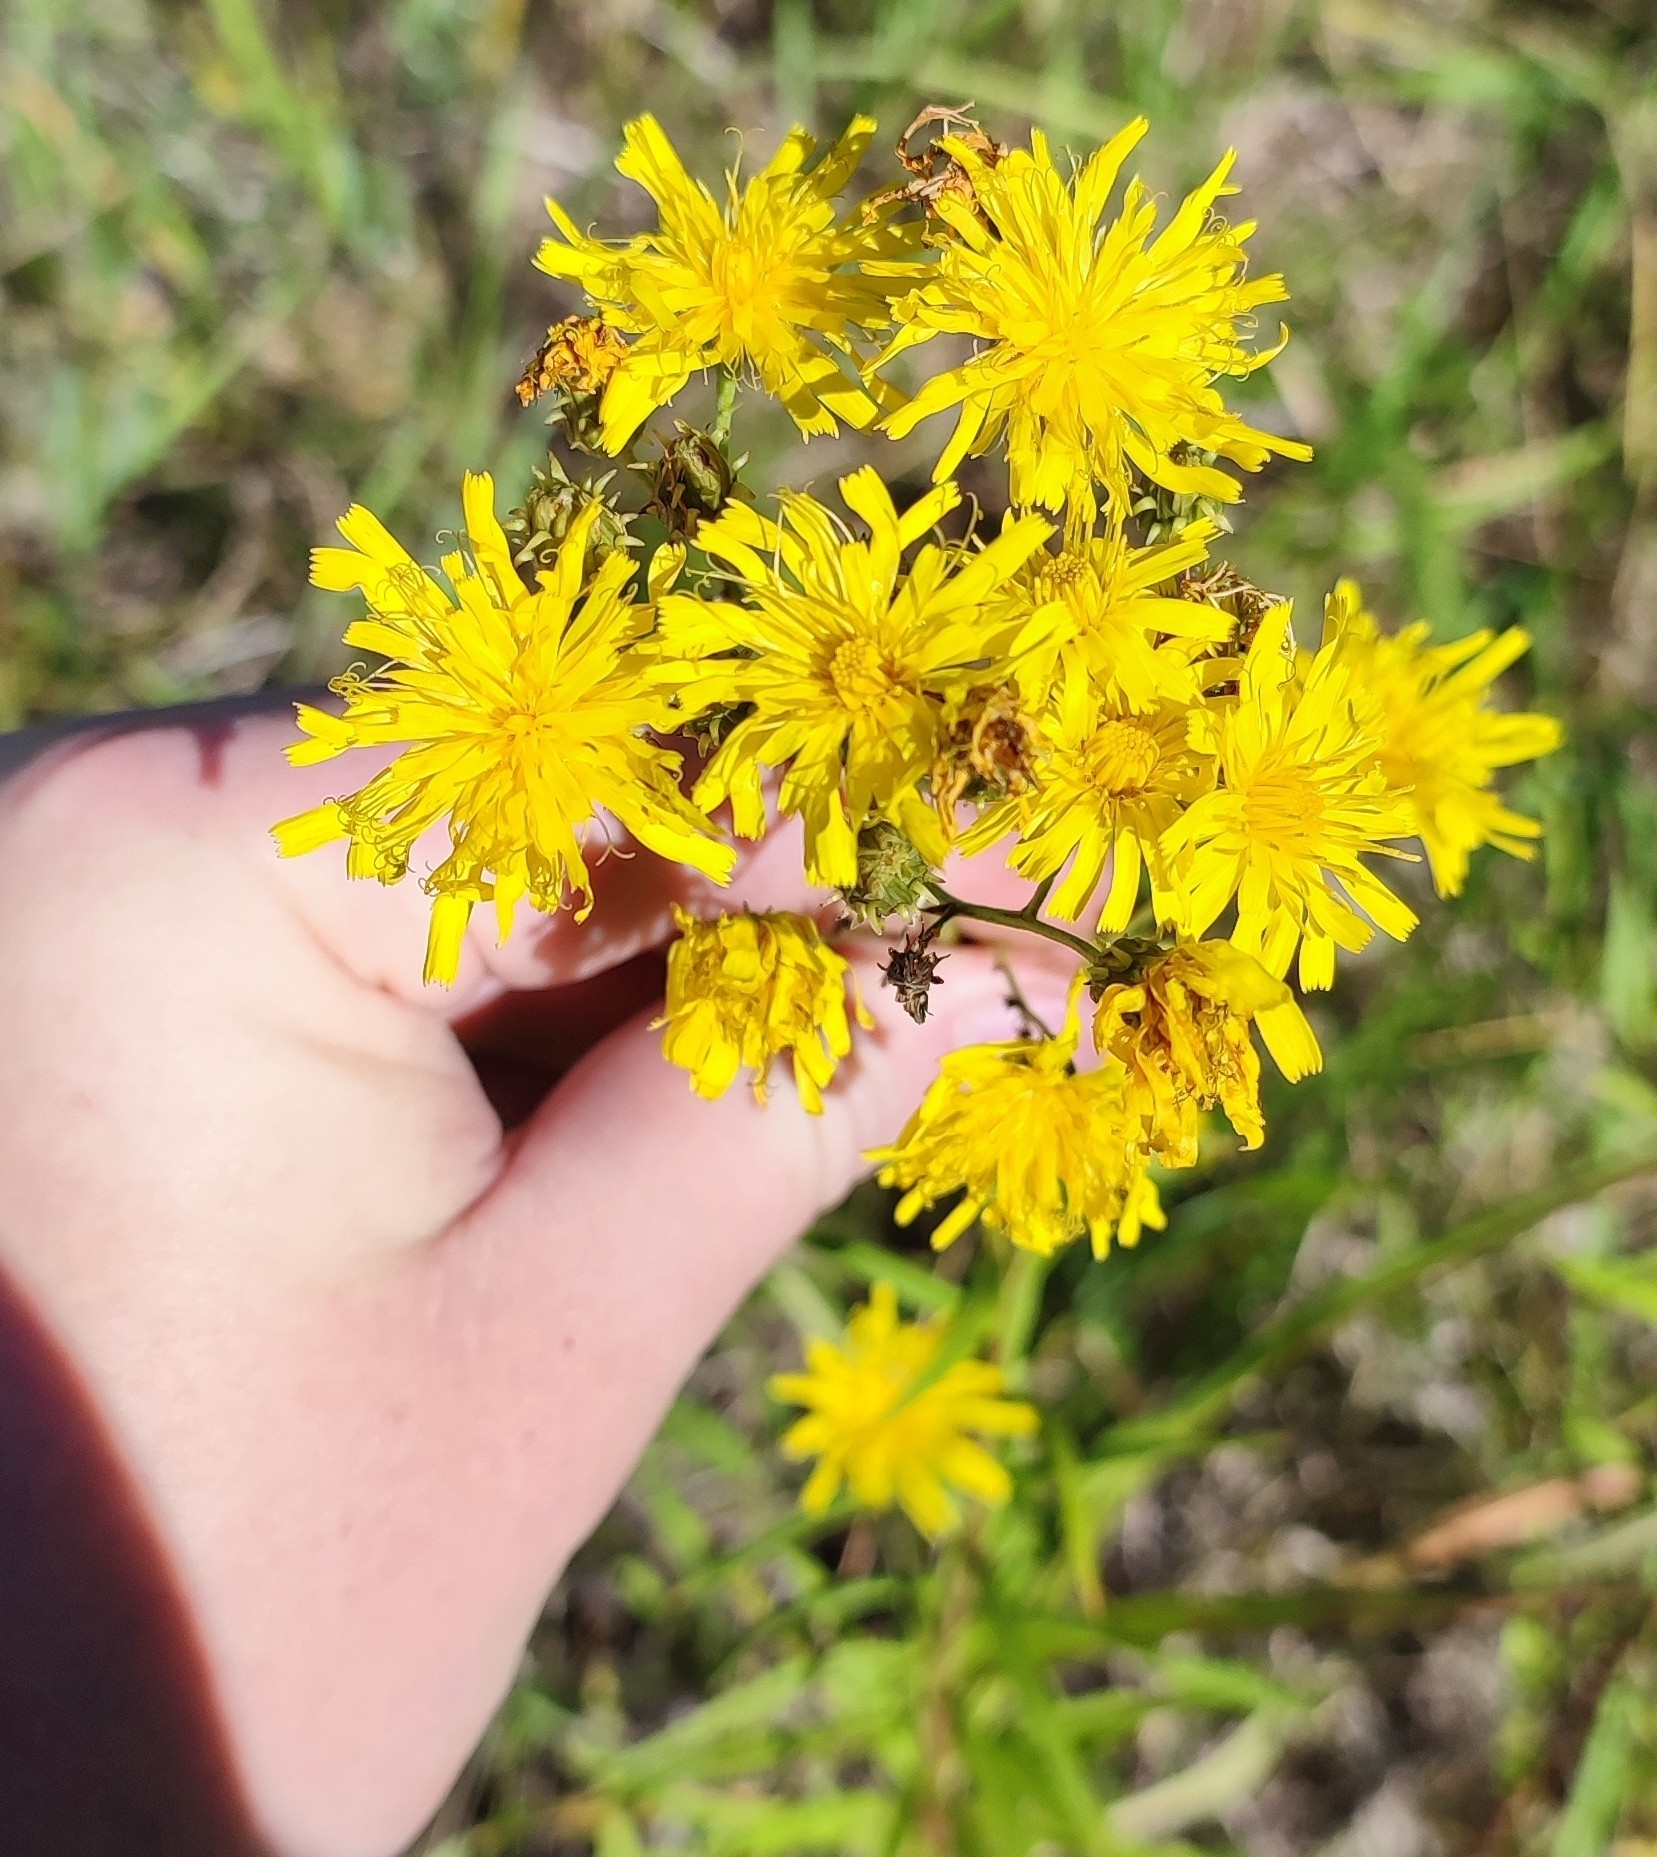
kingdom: Plantae
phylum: Tracheophyta
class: Magnoliopsida
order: Asterales
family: Asteraceae
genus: Hieracium
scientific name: Hieracium umbellatum
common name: Northern hawkweed
